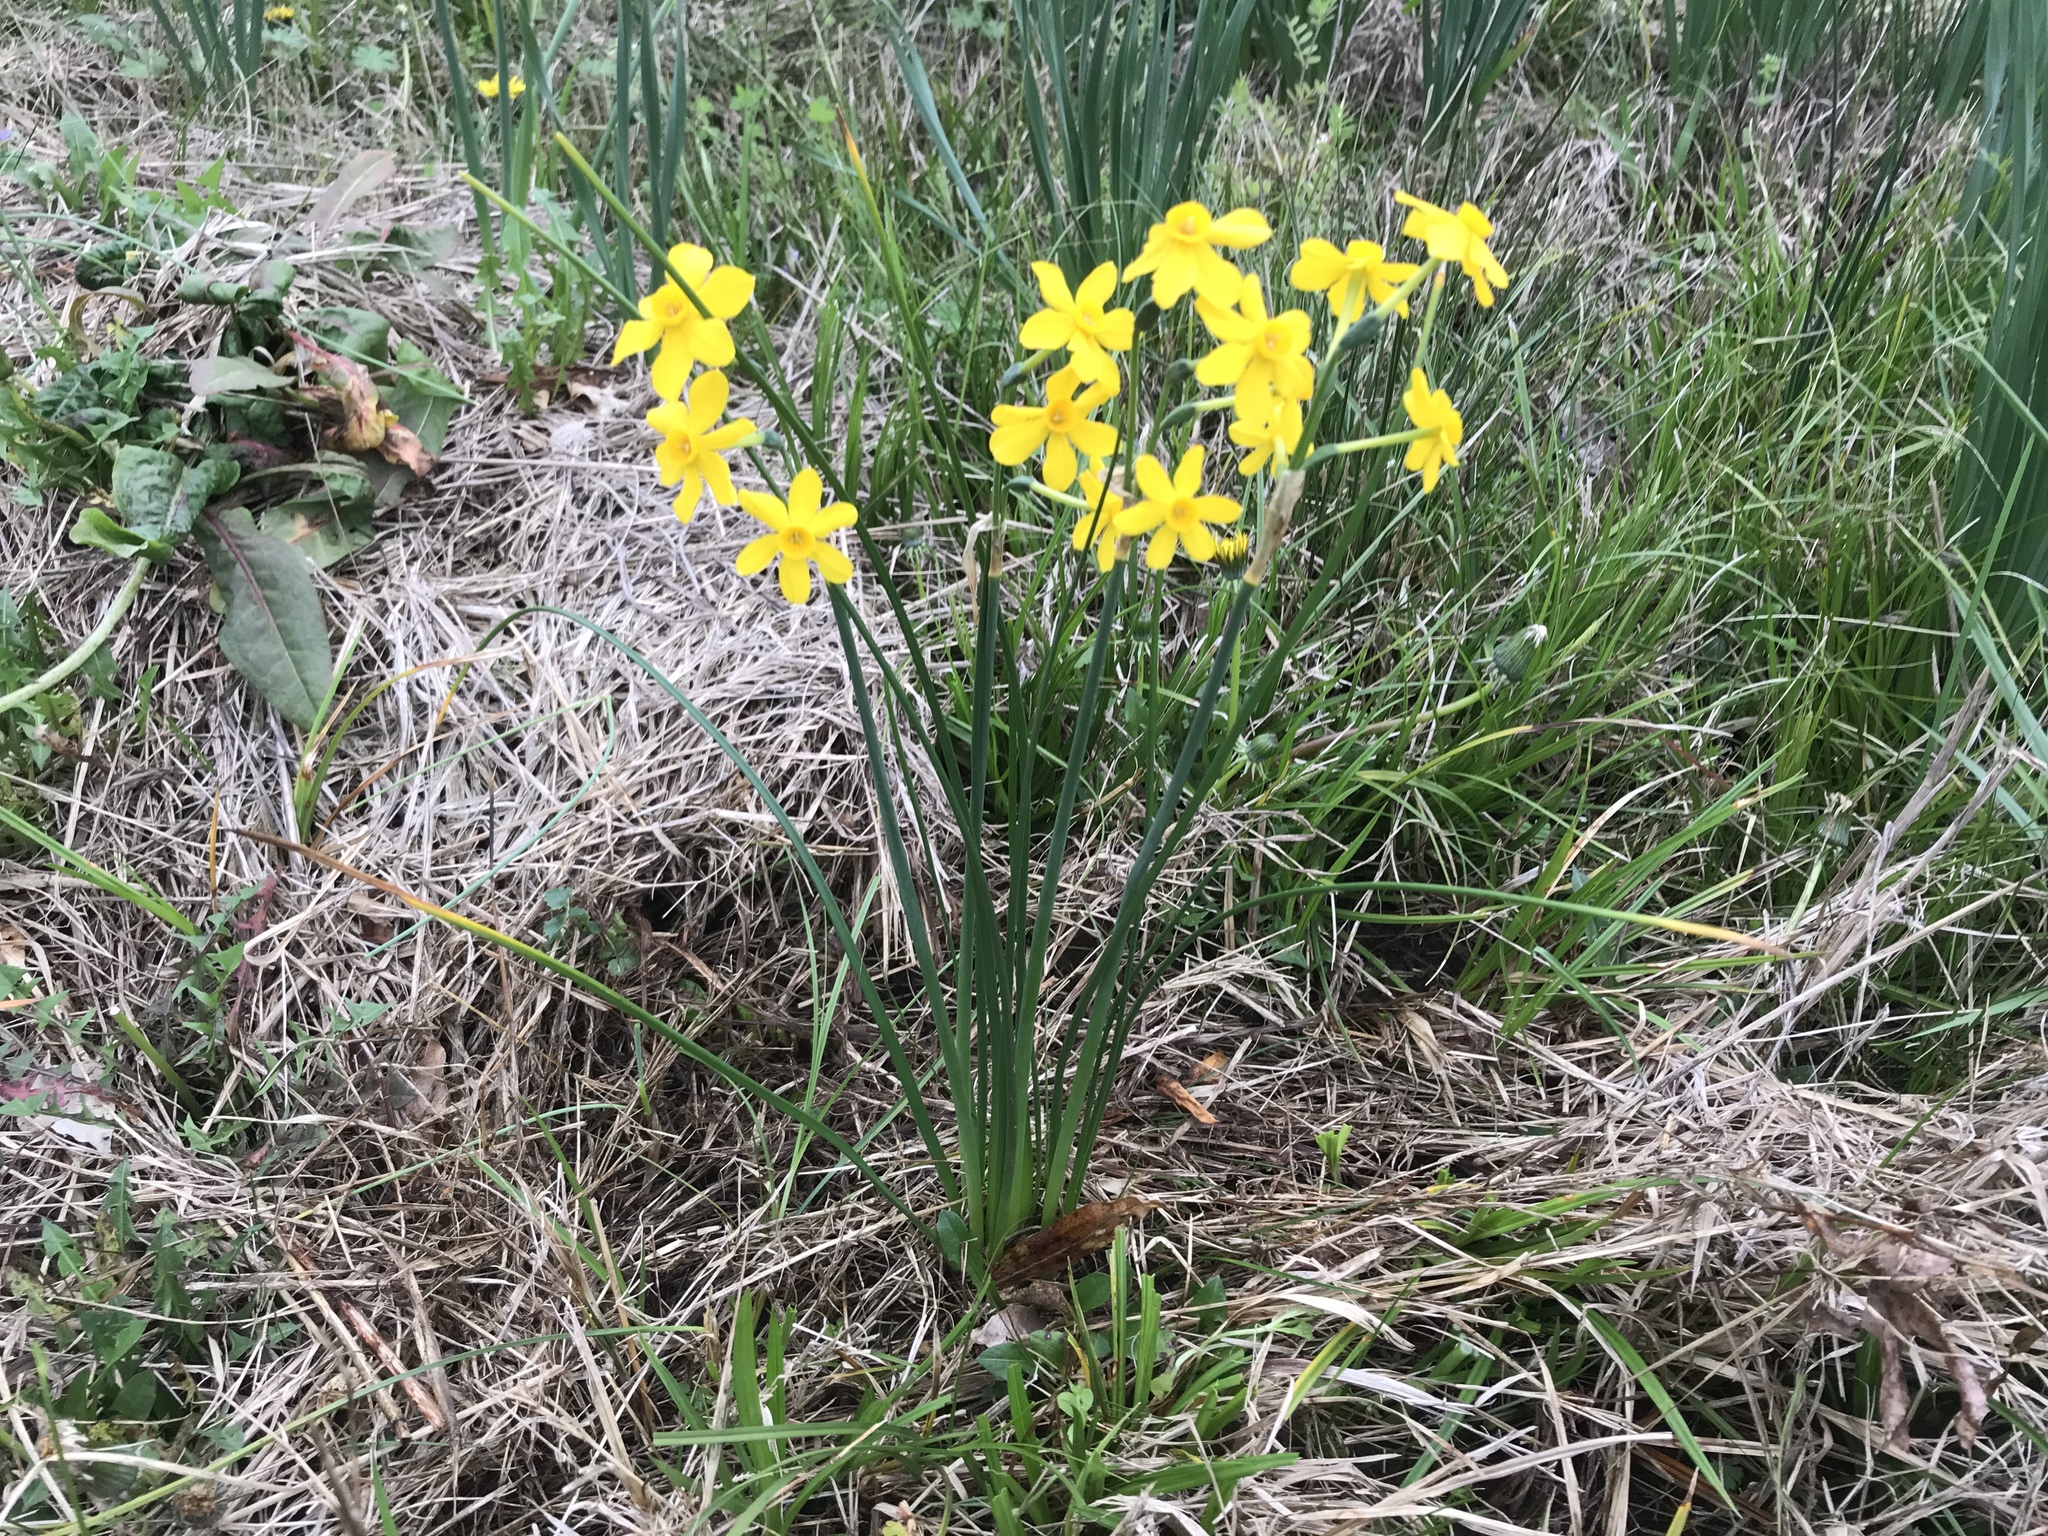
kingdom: Plantae
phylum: Tracheophyta
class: Liliopsida
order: Asparagales
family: Amaryllidaceae
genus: Narcissus
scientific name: Narcissus jonquilla
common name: Jonquil
